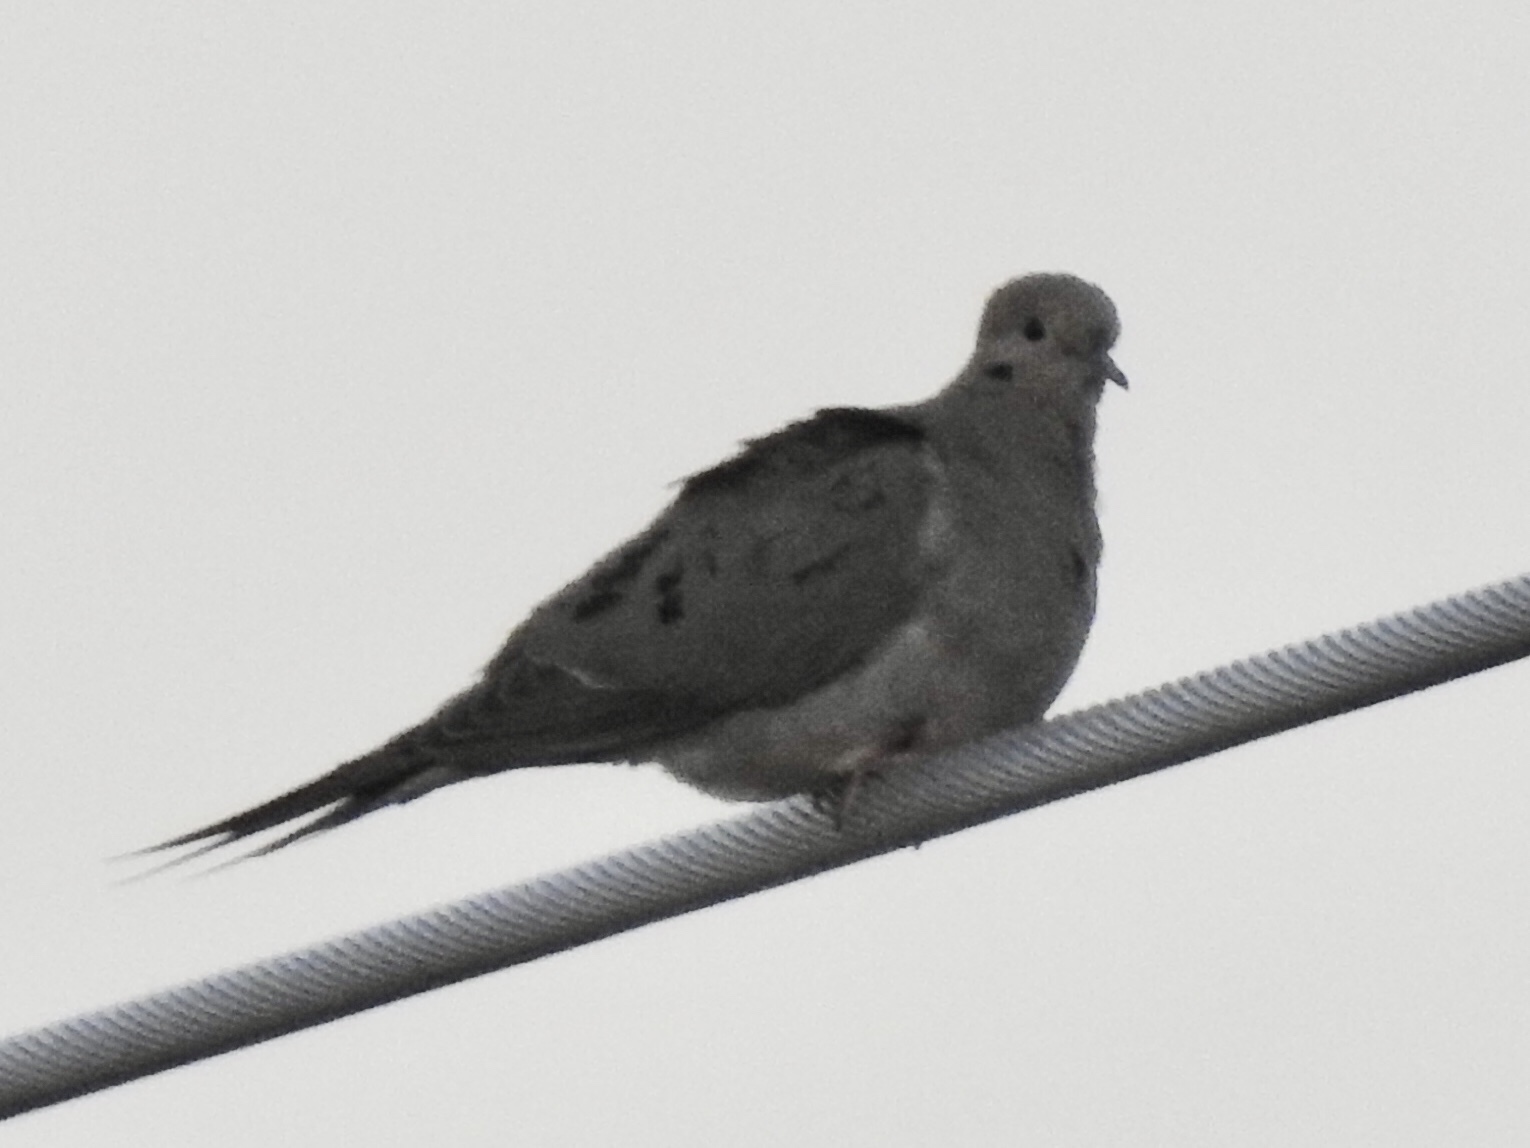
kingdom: Animalia
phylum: Chordata
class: Aves
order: Columbiformes
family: Columbidae
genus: Zenaida
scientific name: Zenaida macroura
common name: Mourning dove
